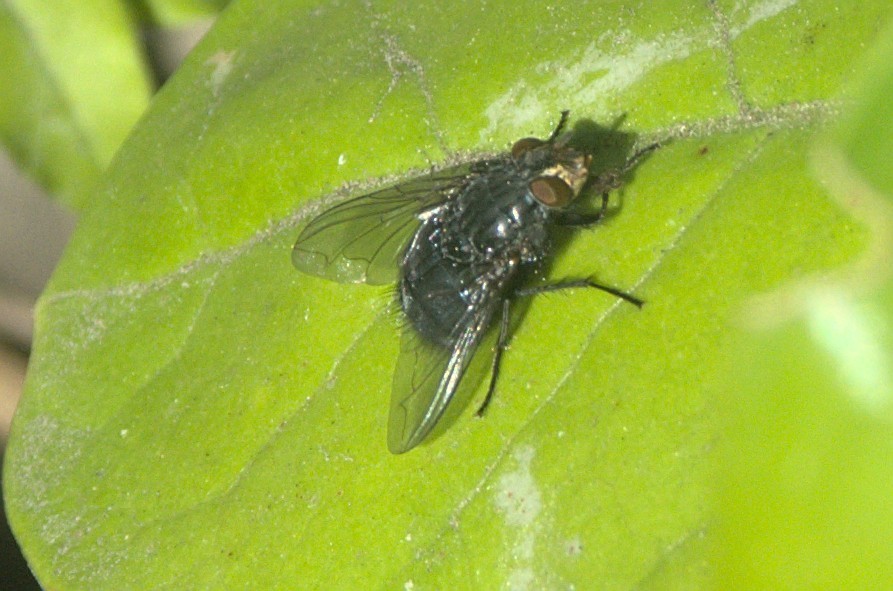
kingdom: Animalia
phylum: Arthropoda
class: Insecta
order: Diptera
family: Calliphoridae
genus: Calliphora
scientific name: Calliphora vicina
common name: Common blow flie
